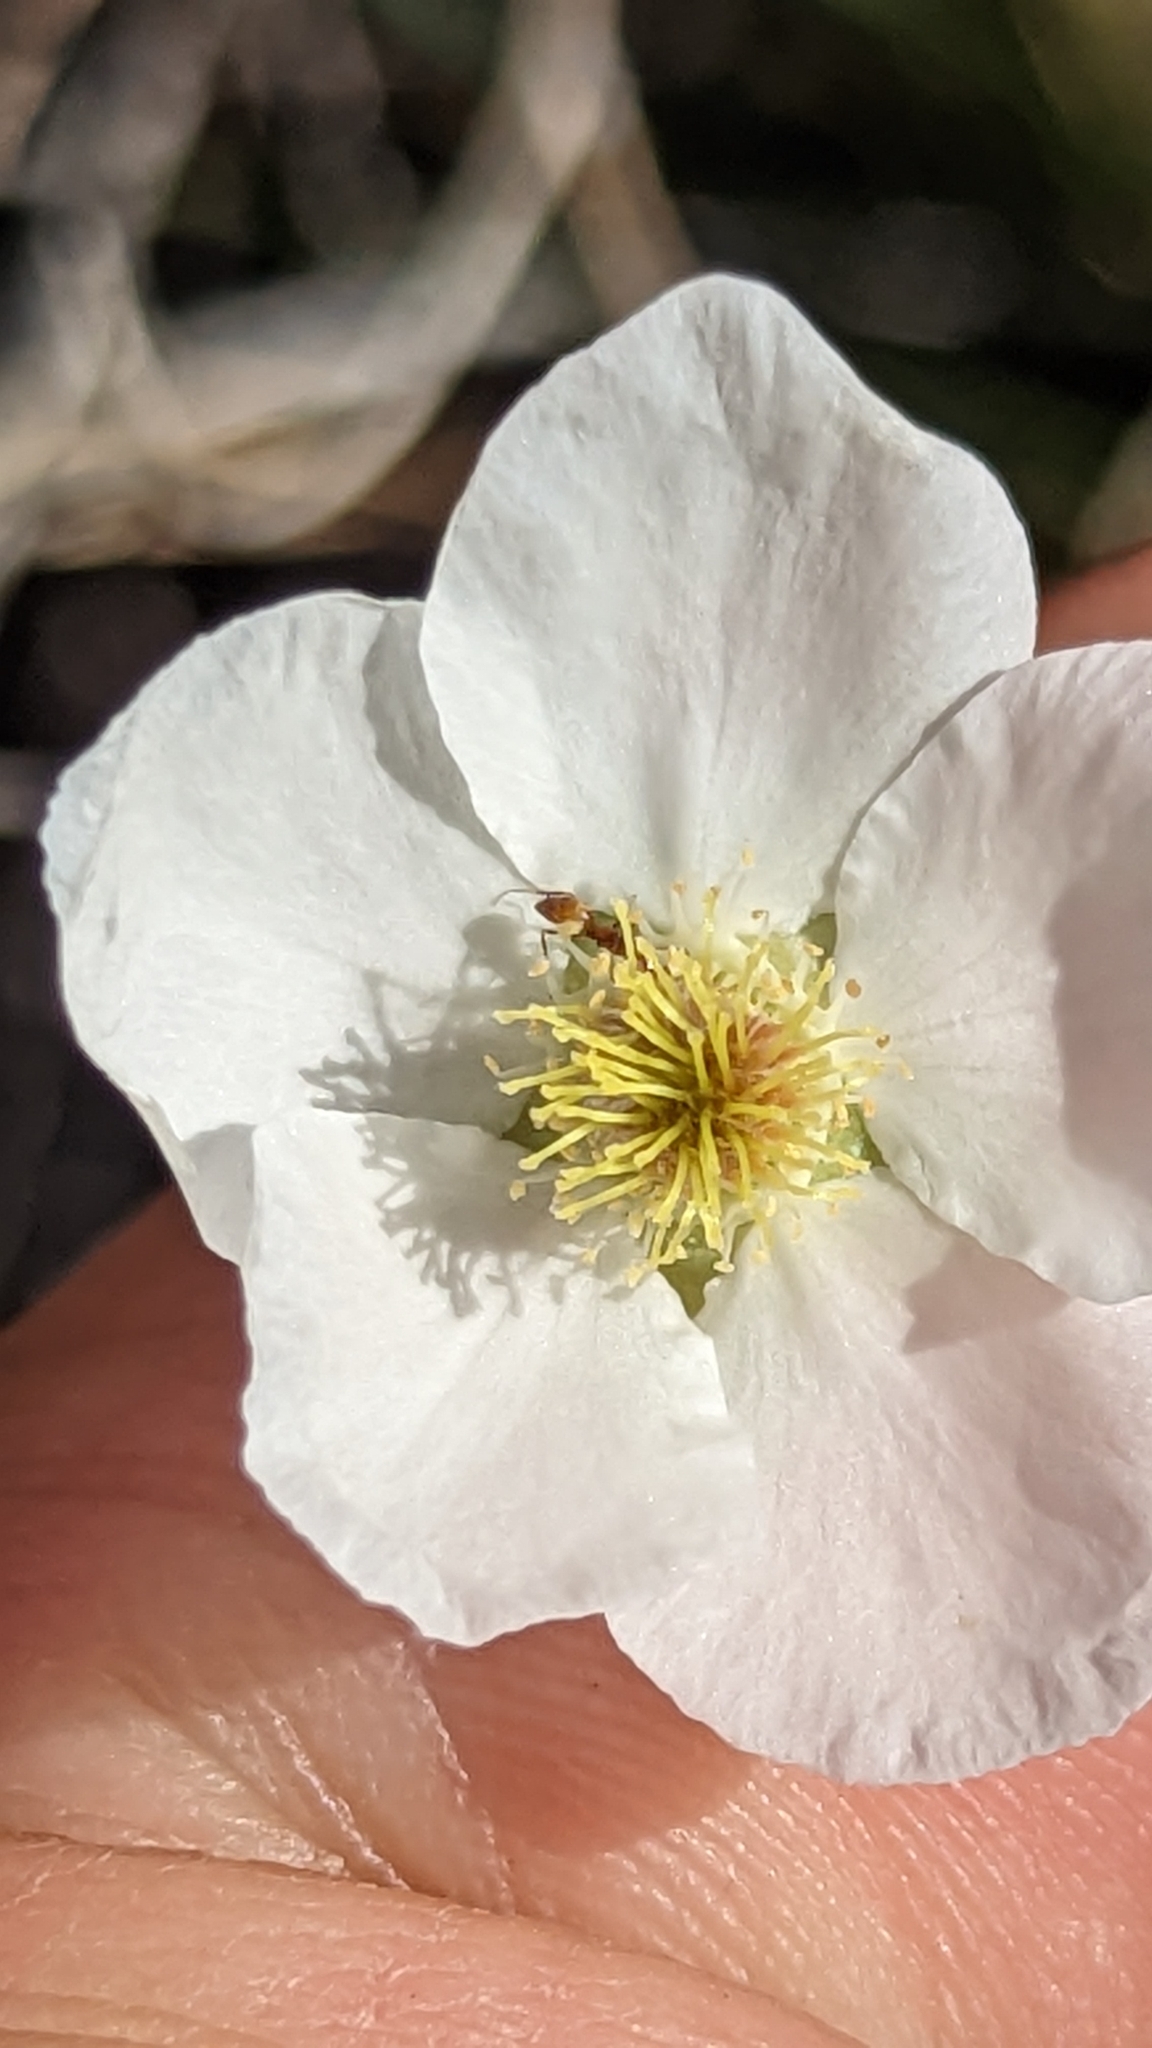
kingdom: Plantae
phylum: Tracheophyta
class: Magnoliopsida
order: Rosales
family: Rosaceae
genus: Fallugia
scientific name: Fallugia paradoxa
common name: Apache-plume
